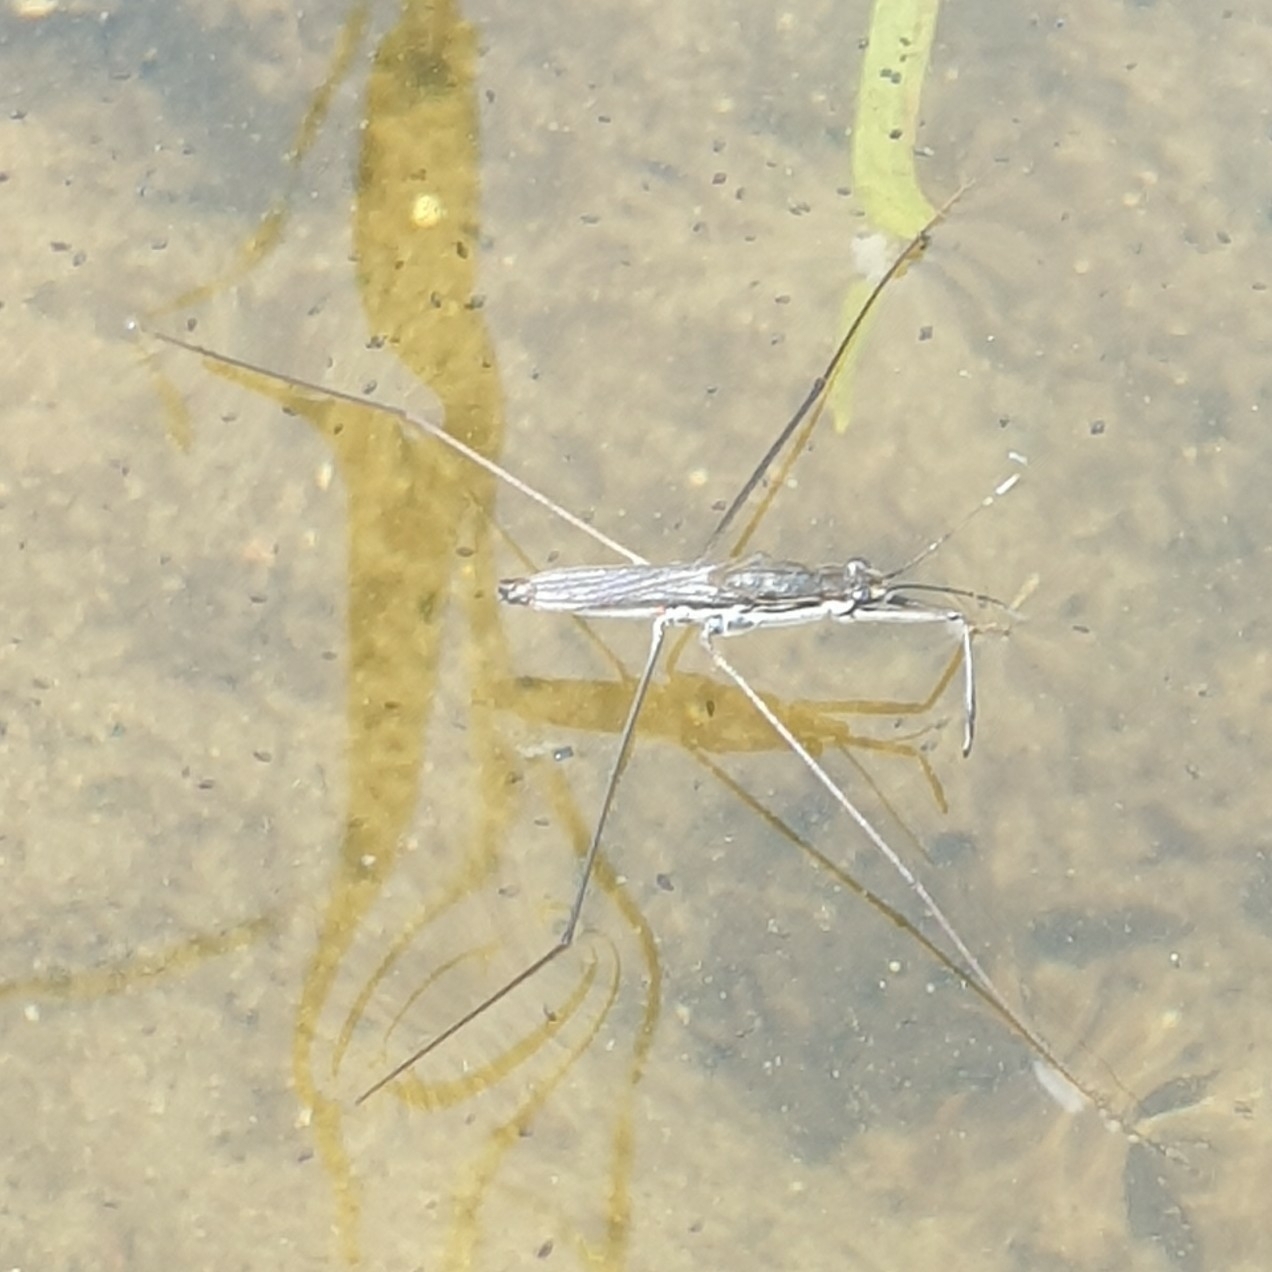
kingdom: Animalia
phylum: Arthropoda
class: Insecta
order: Hemiptera
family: Gerridae
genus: Aquarius
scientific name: Aquarius paludum
